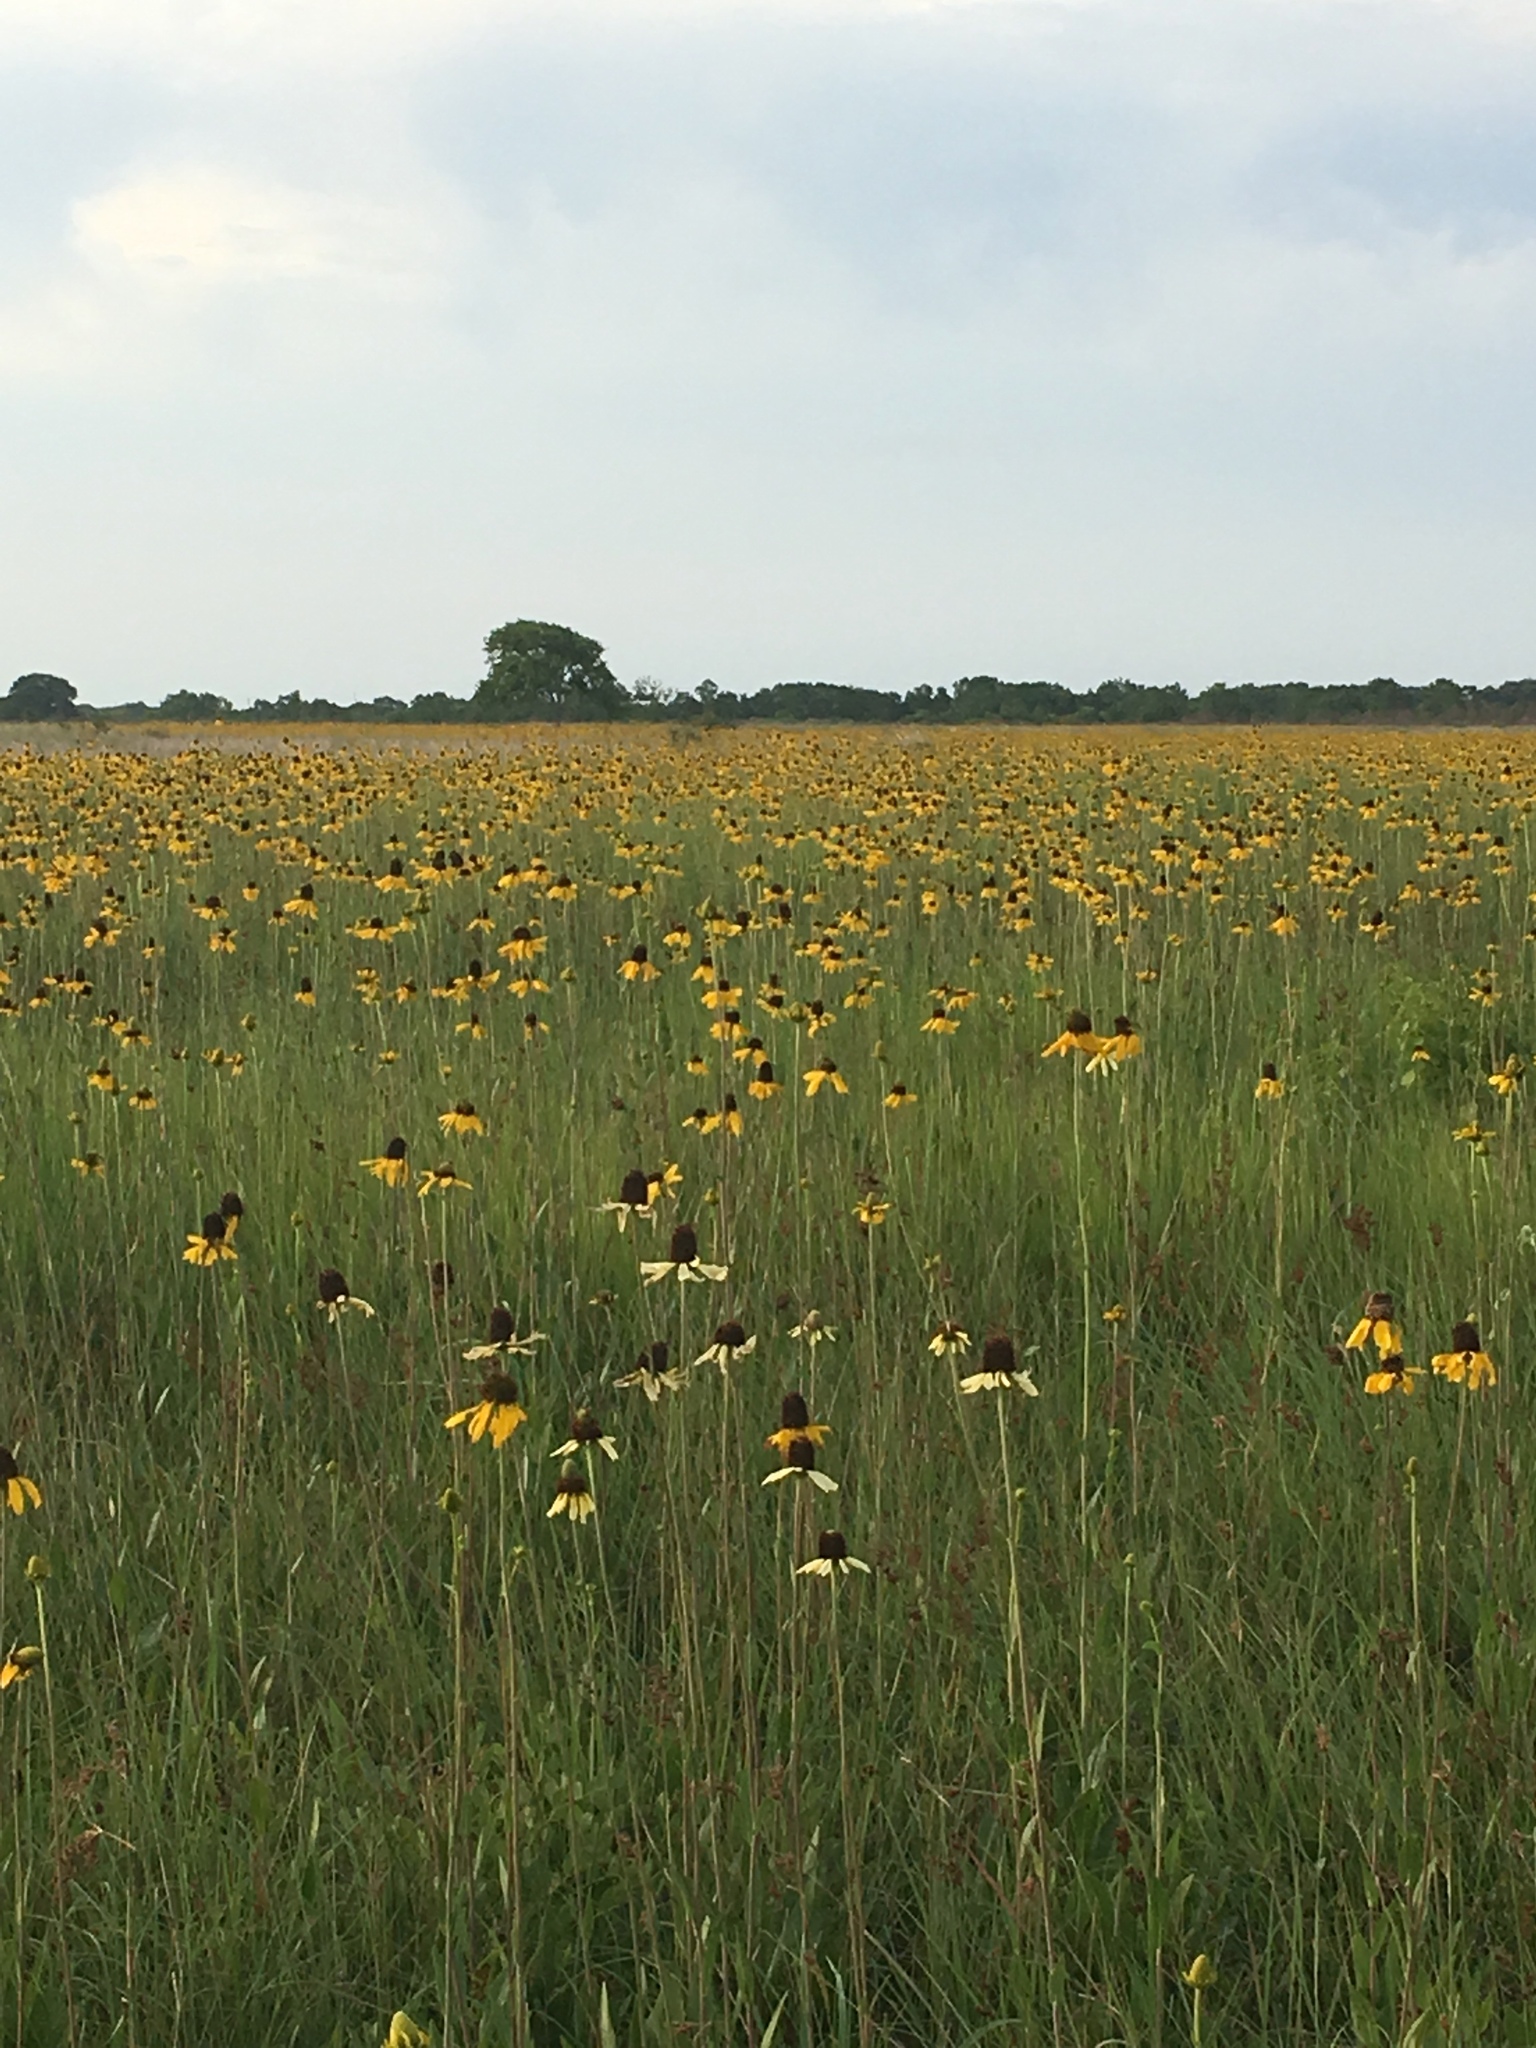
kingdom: Plantae
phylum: Tracheophyta
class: Magnoliopsida
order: Asterales
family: Asteraceae
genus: Rudbeckia
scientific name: Rudbeckia texana
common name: Texas coneflower
